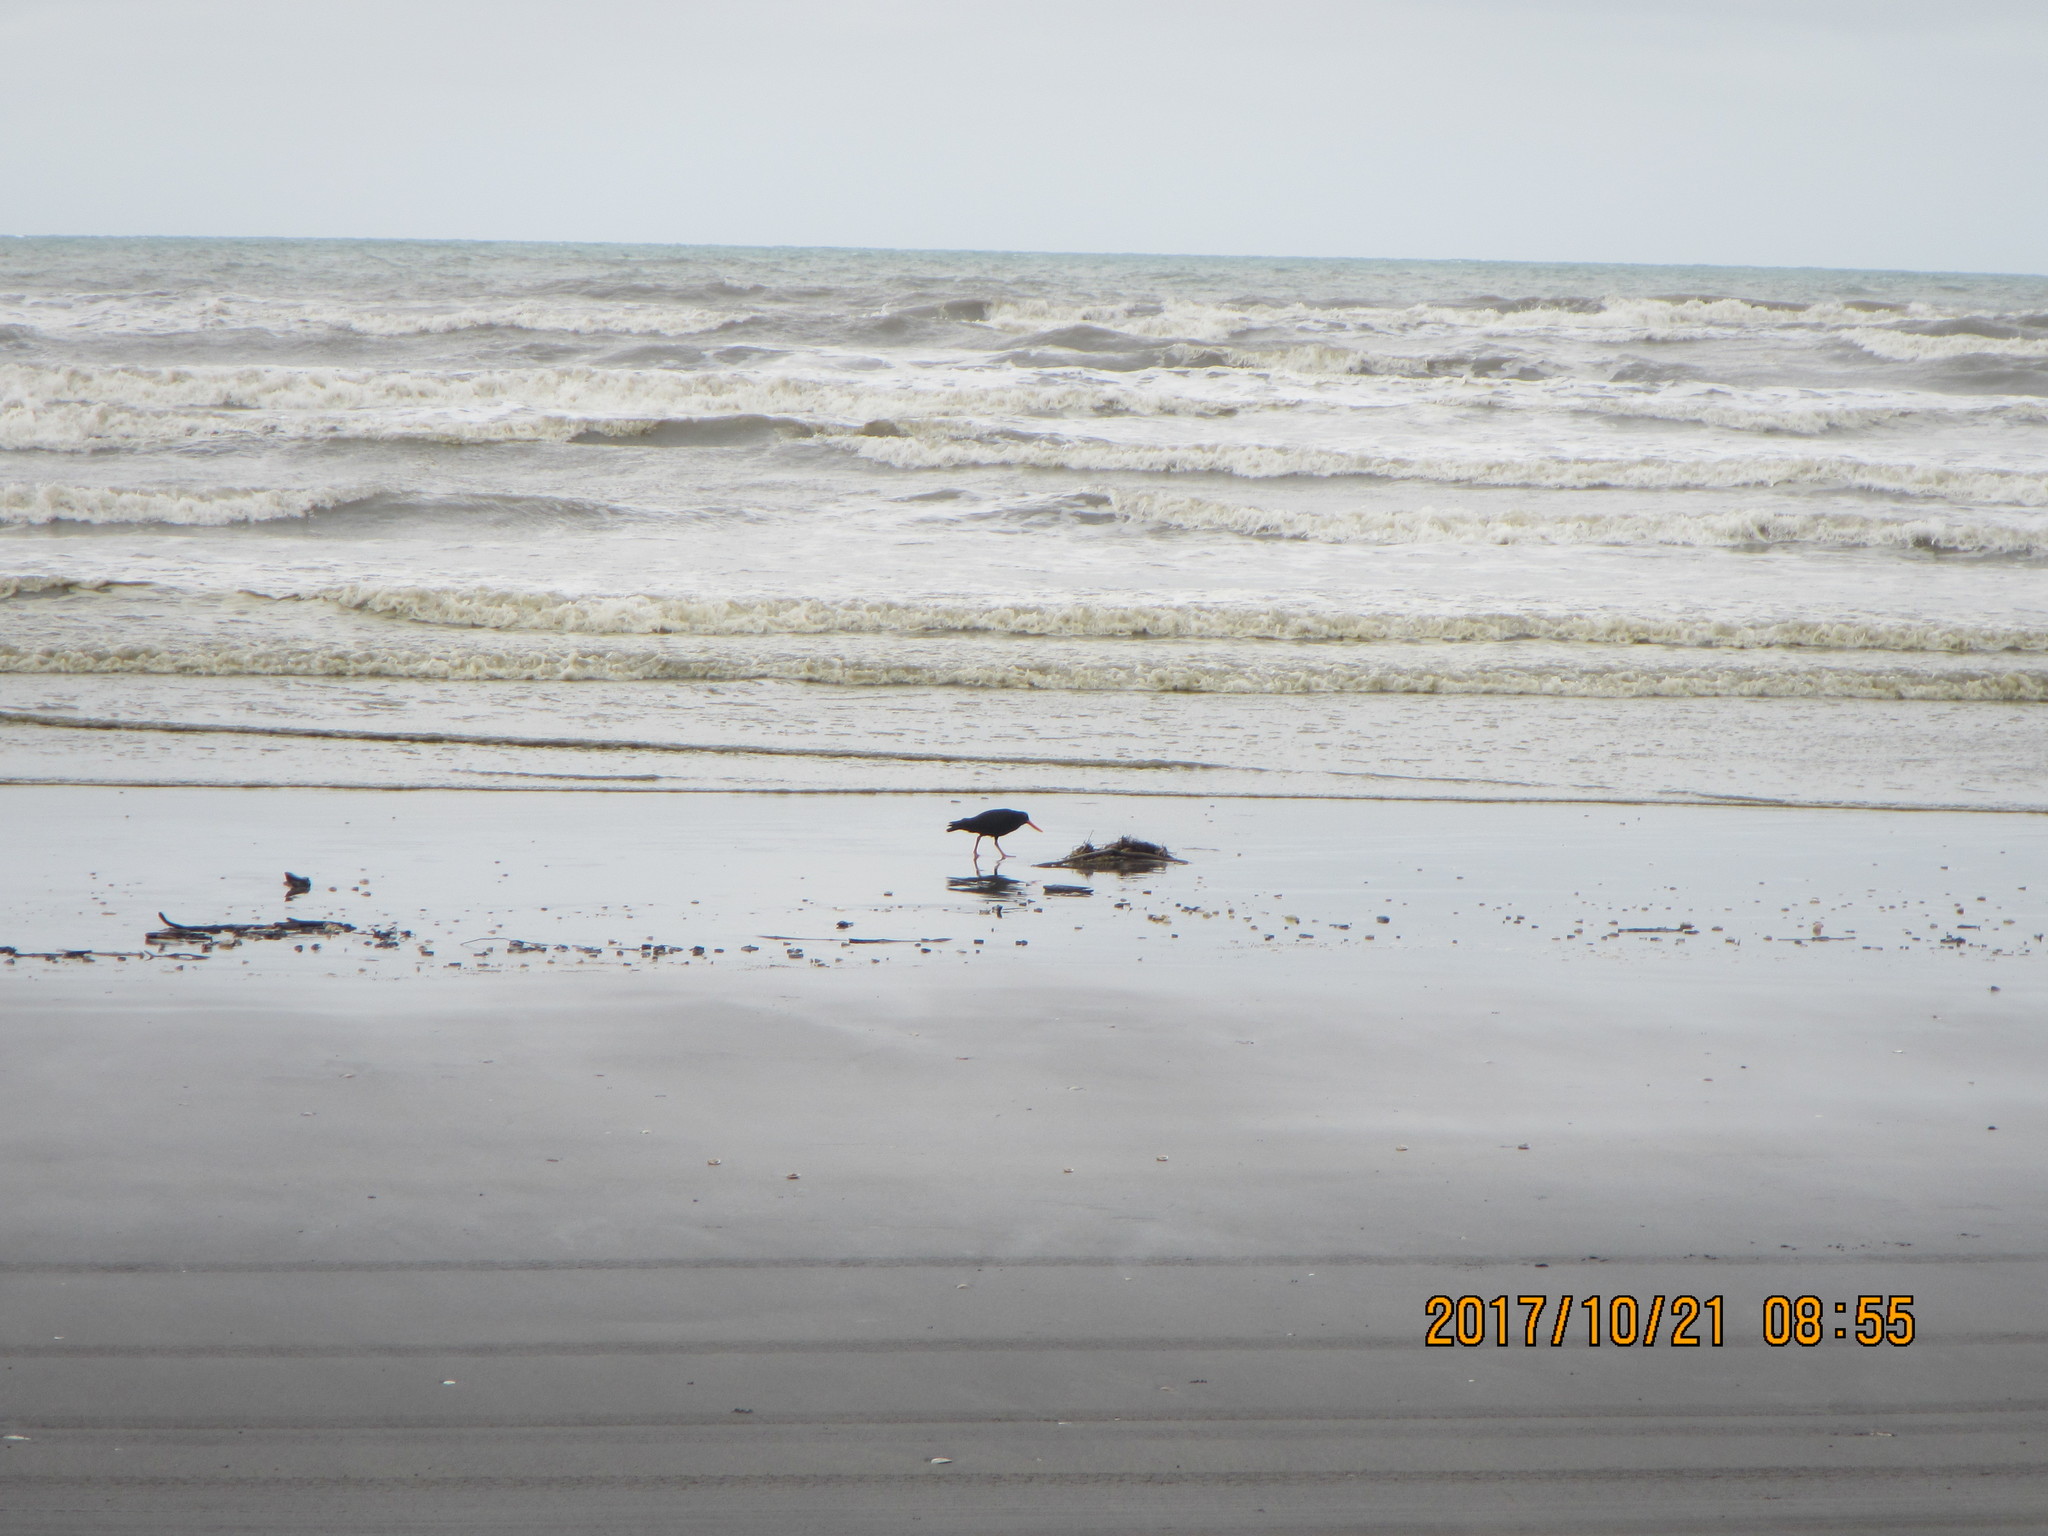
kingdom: Animalia
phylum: Chordata
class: Aves
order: Charadriiformes
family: Haematopodidae
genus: Haematopus
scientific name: Haematopus unicolor
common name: Variable oystercatcher
